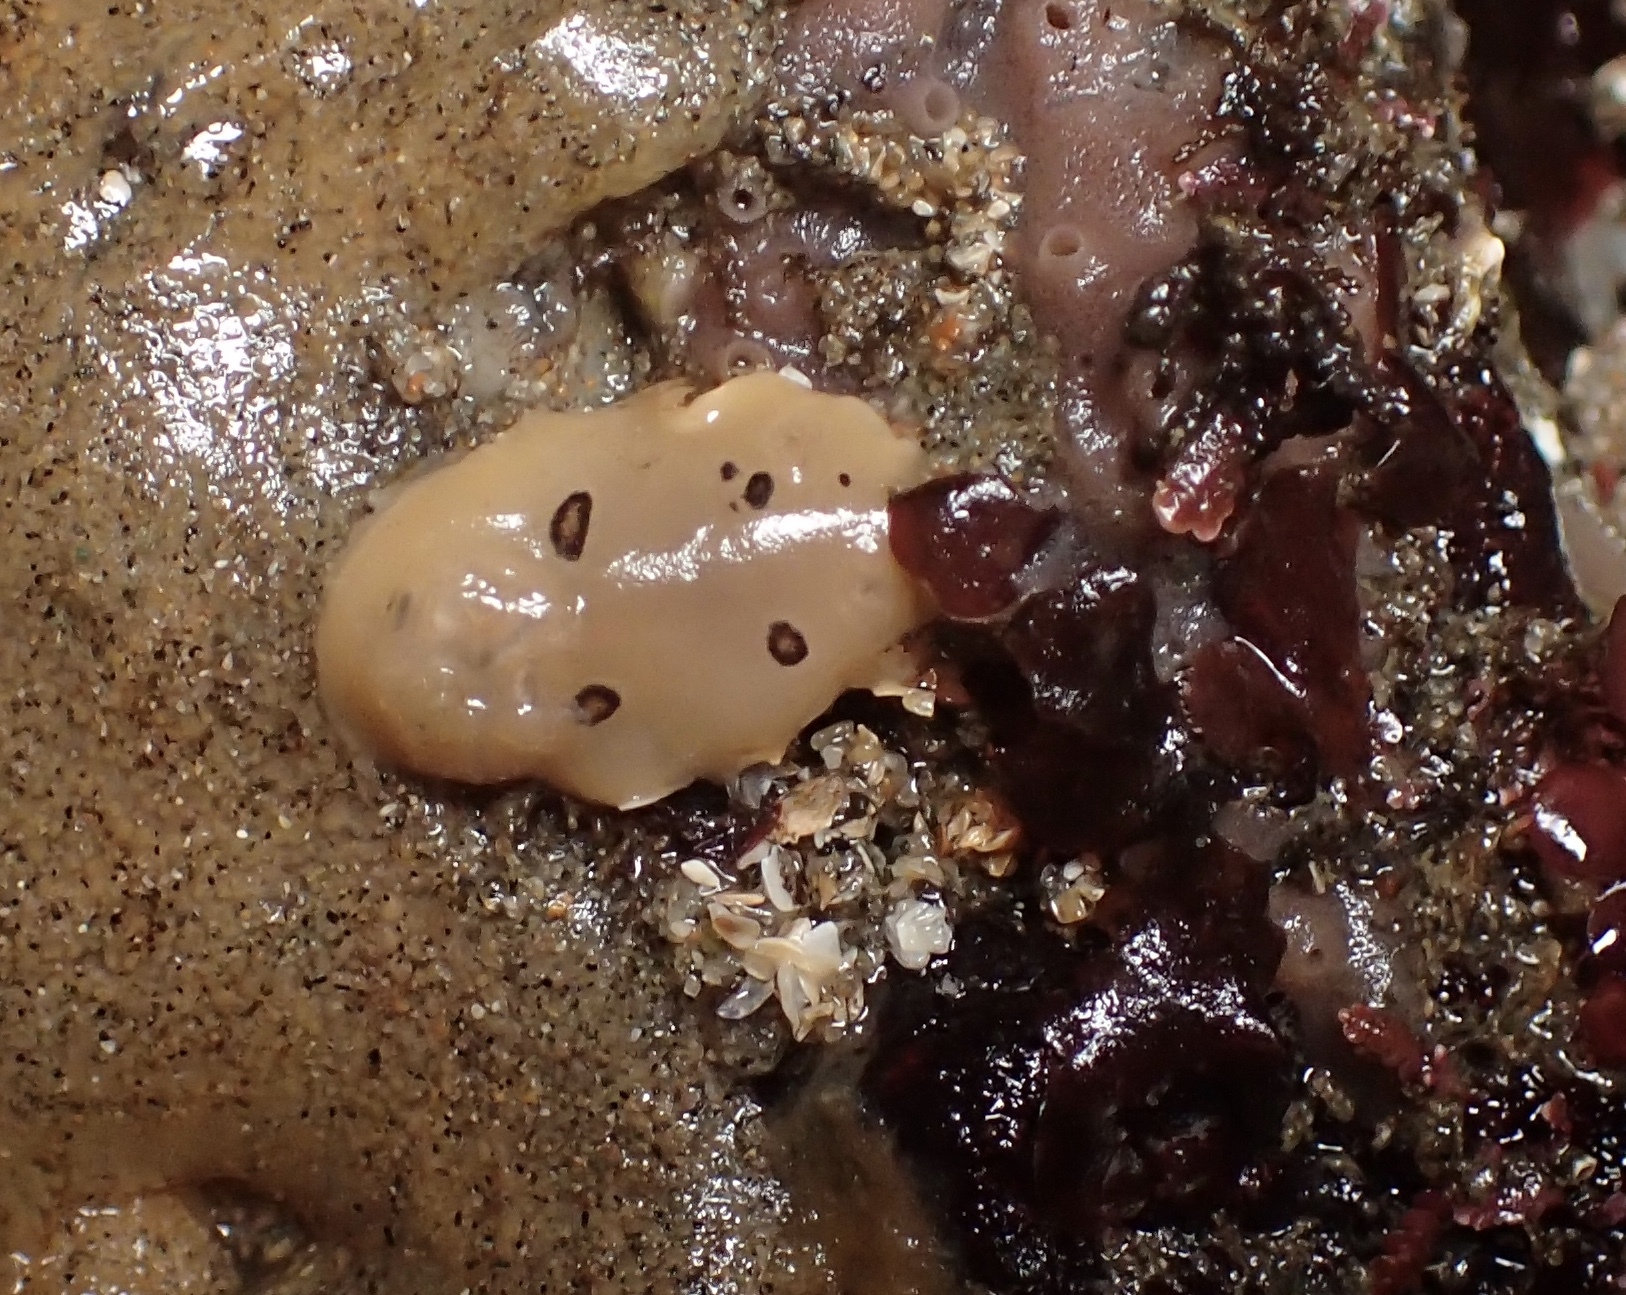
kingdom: Animalia
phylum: Mollusca
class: Gastropoda
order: Nudibranchia
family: Discodorididae
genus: Diaulula
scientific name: Diaulula sandiegensis
